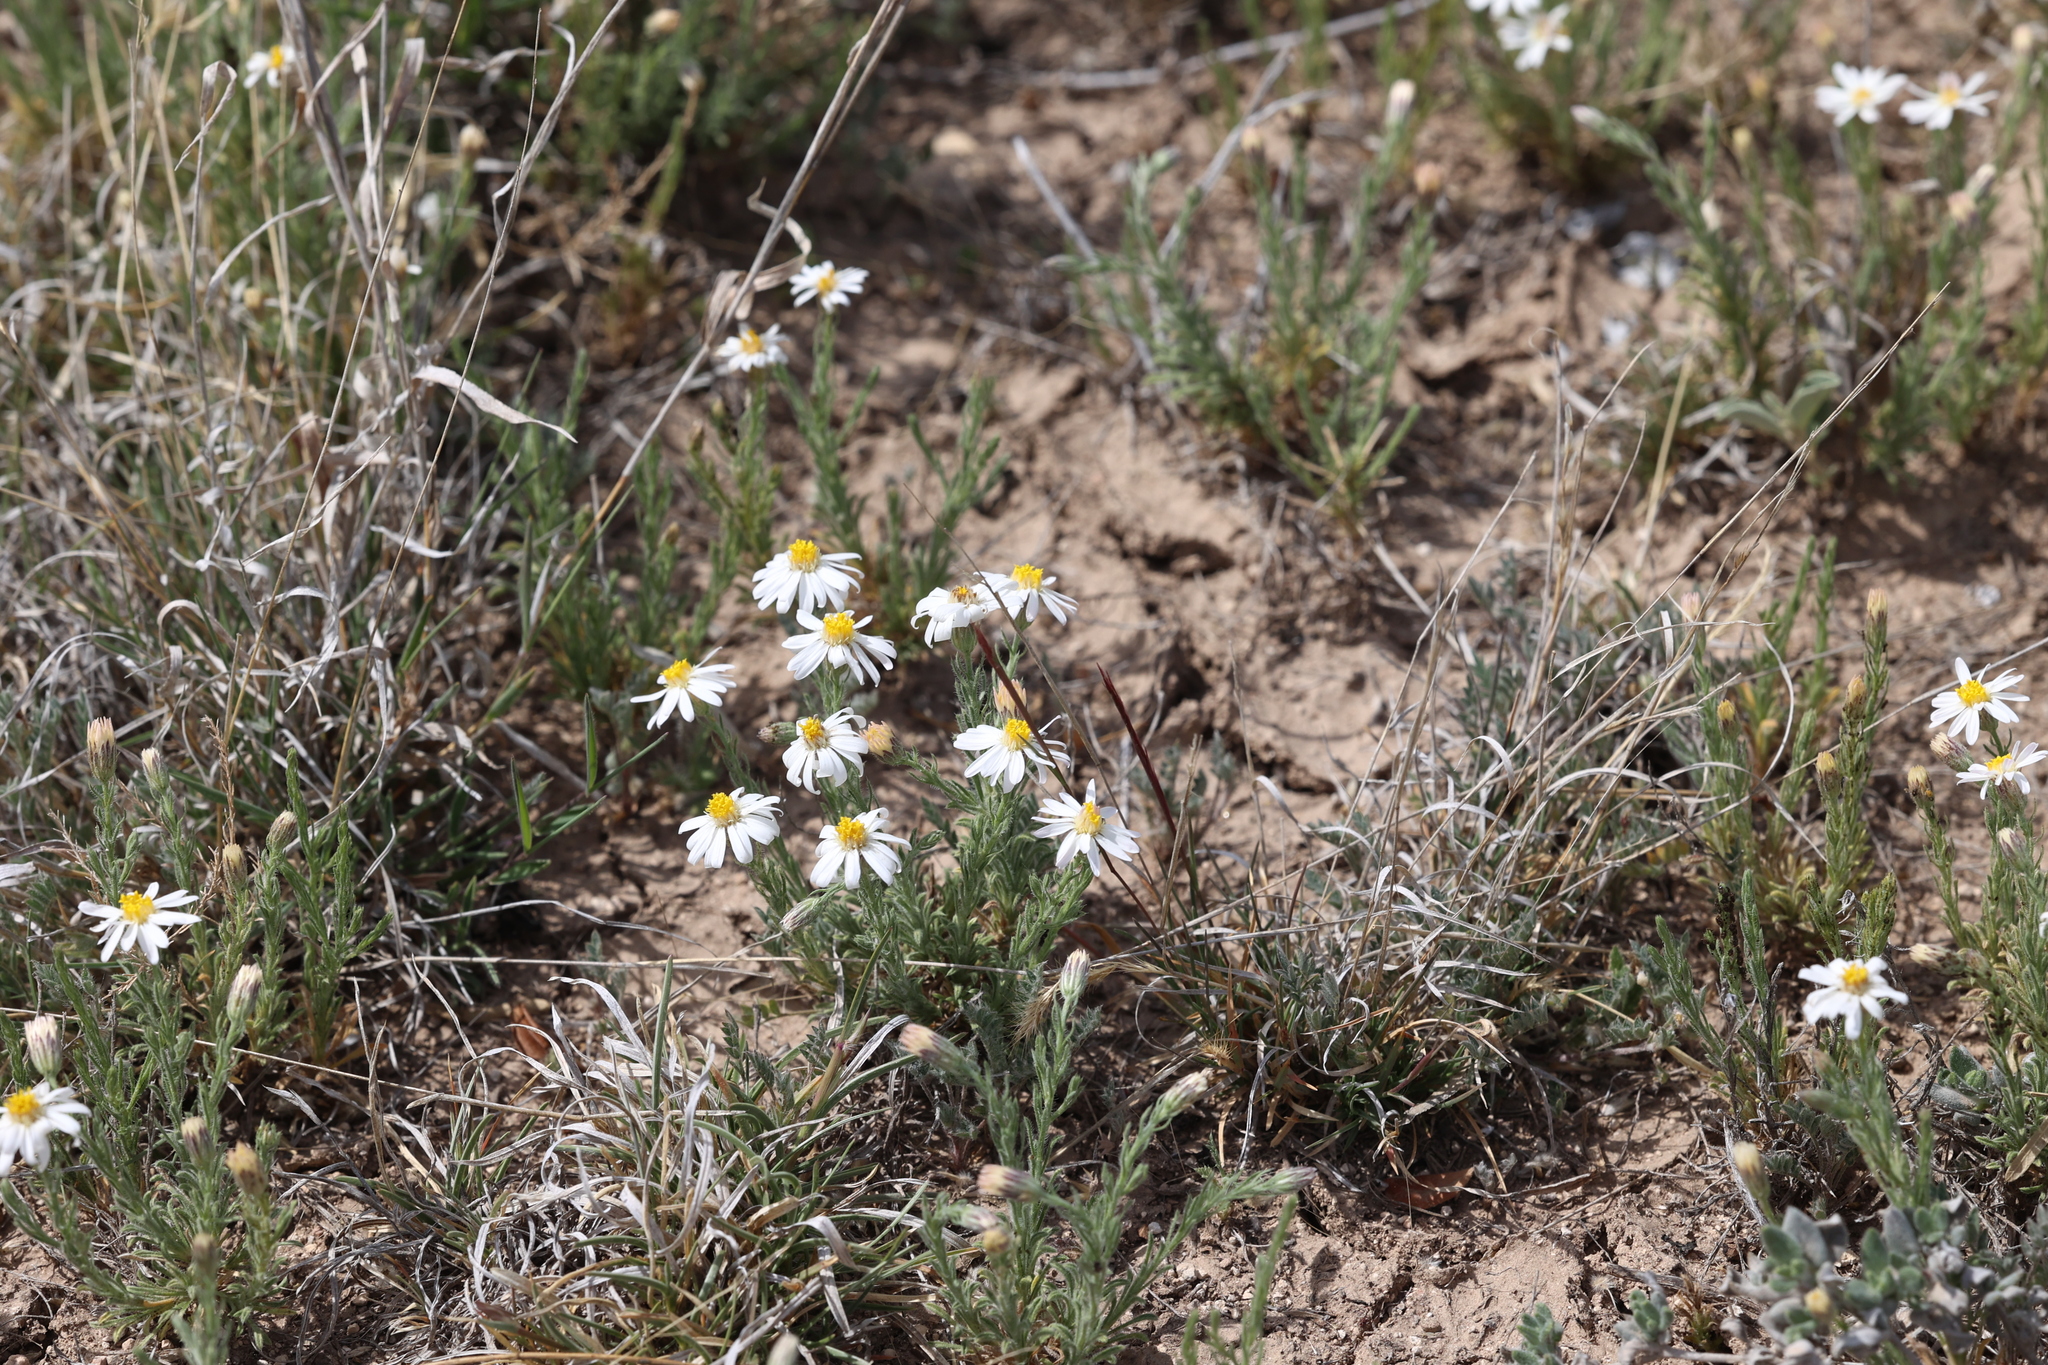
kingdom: Plantae
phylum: Tracheophyta
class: Magnoliopsida
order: Asterales
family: Asteraceae
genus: Chaetopappa
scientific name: Chaetopappa ericoides
